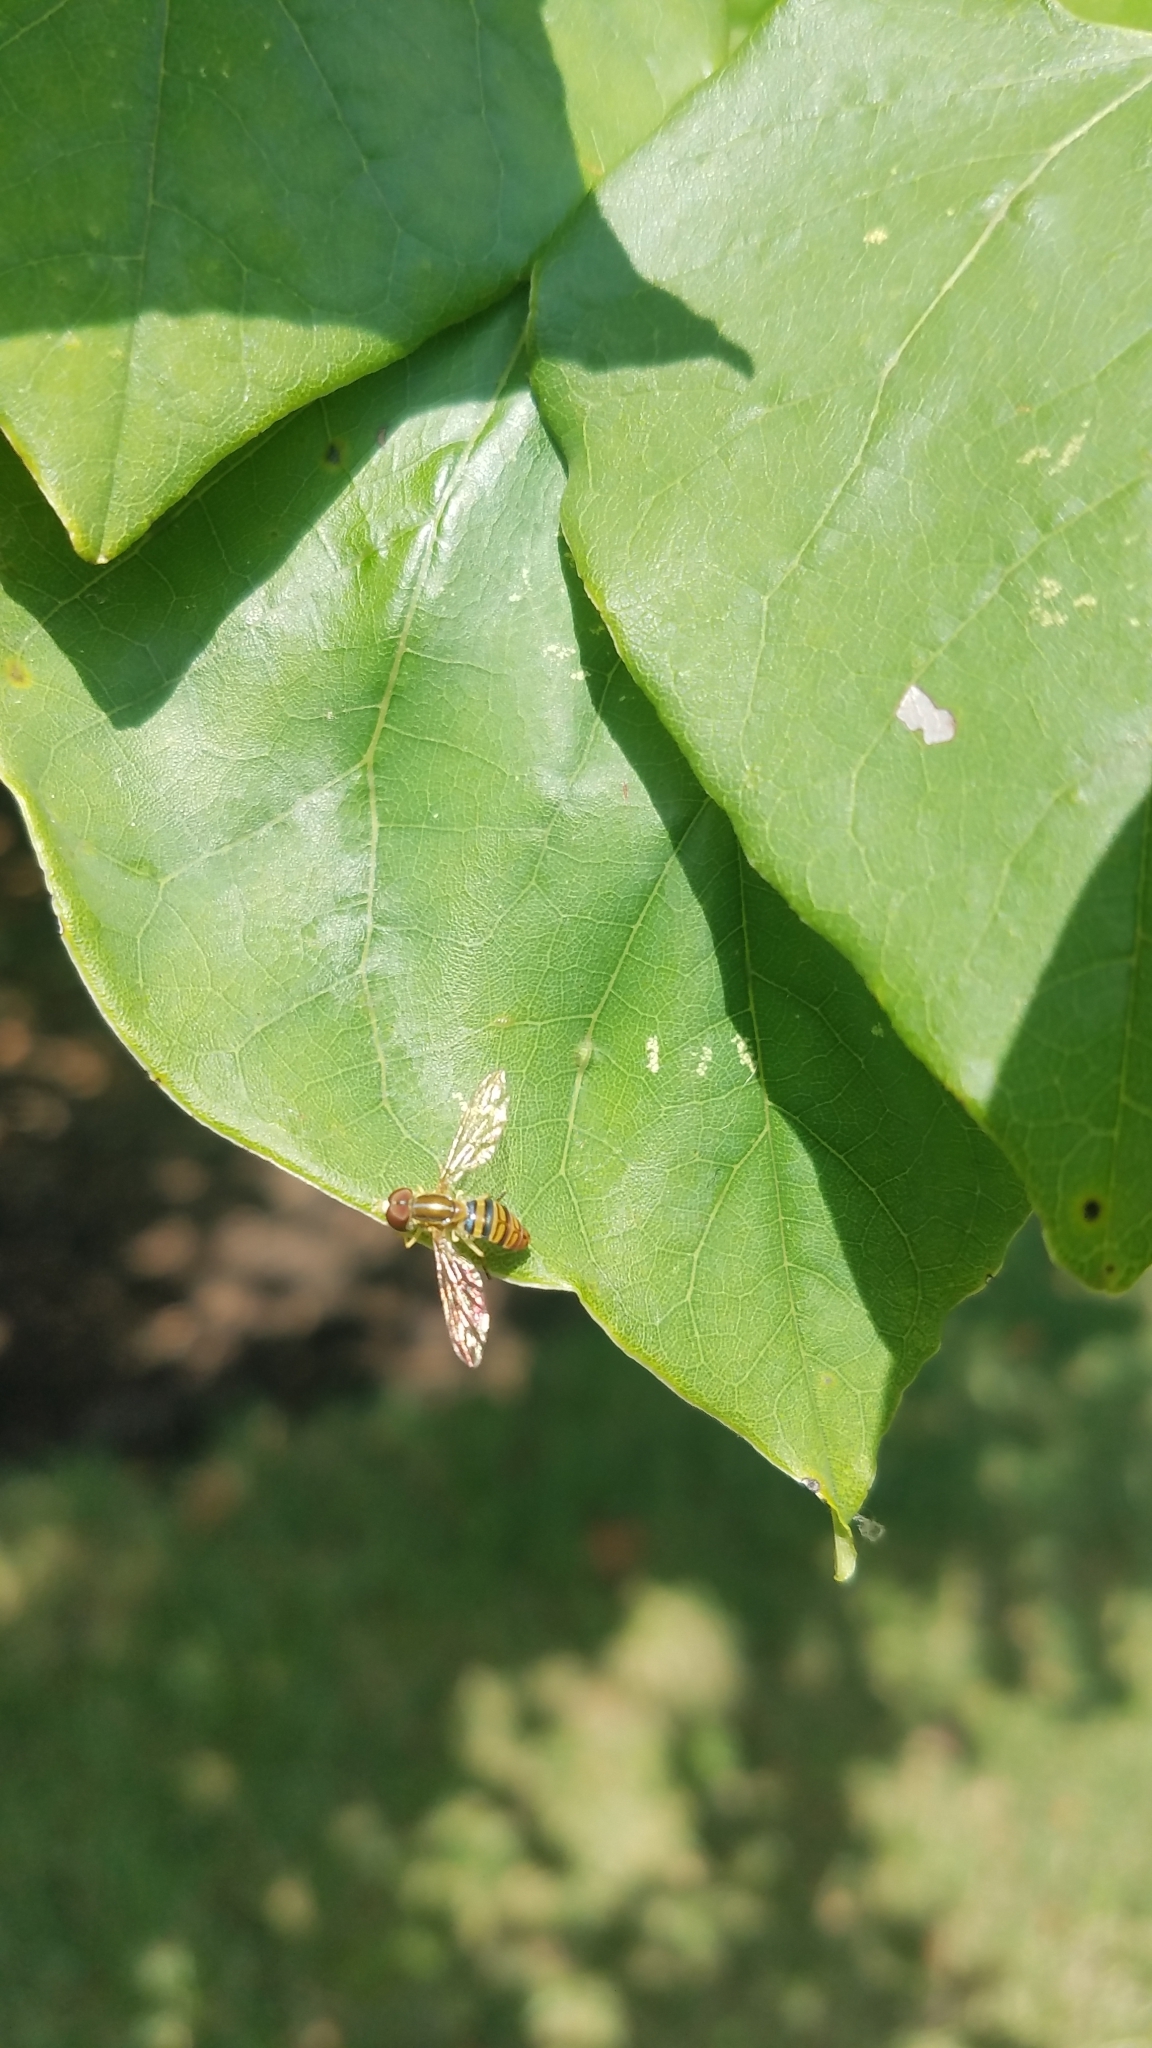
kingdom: Animalia
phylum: Arthropoda
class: Insecta
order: Diptera
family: Syrphidae
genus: Toxomerus
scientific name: Toxomerus politus
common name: Maize calligrapher
